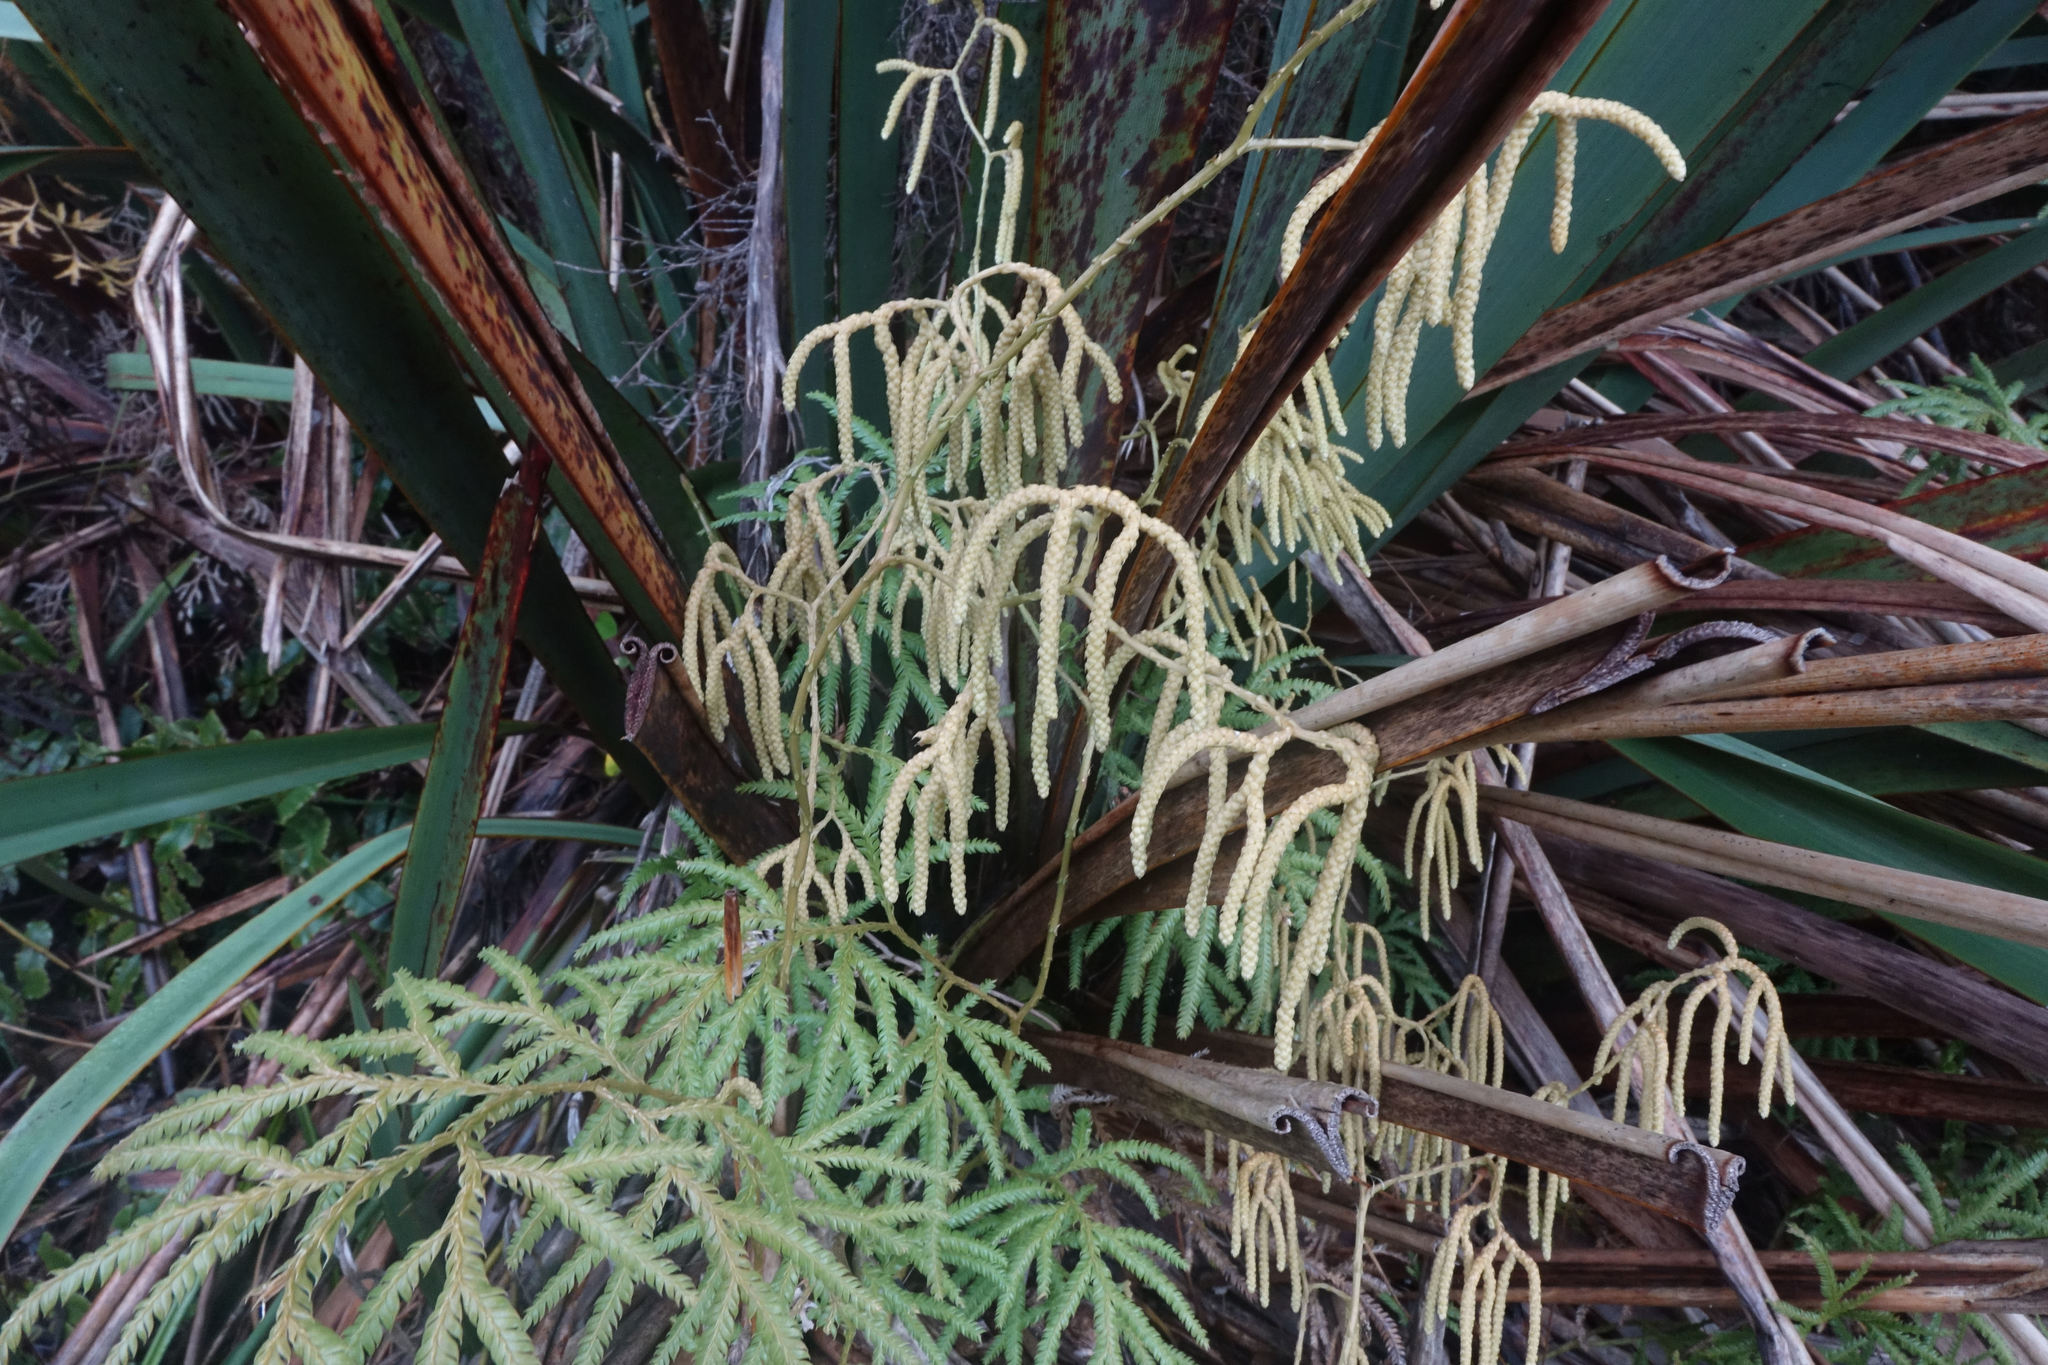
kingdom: Plantae
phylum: Tracheophyta
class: Lycopodiopsida
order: Lycopodiales
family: Lycopodiaceae
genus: Lycopodium
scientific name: Lycopodium volubile
